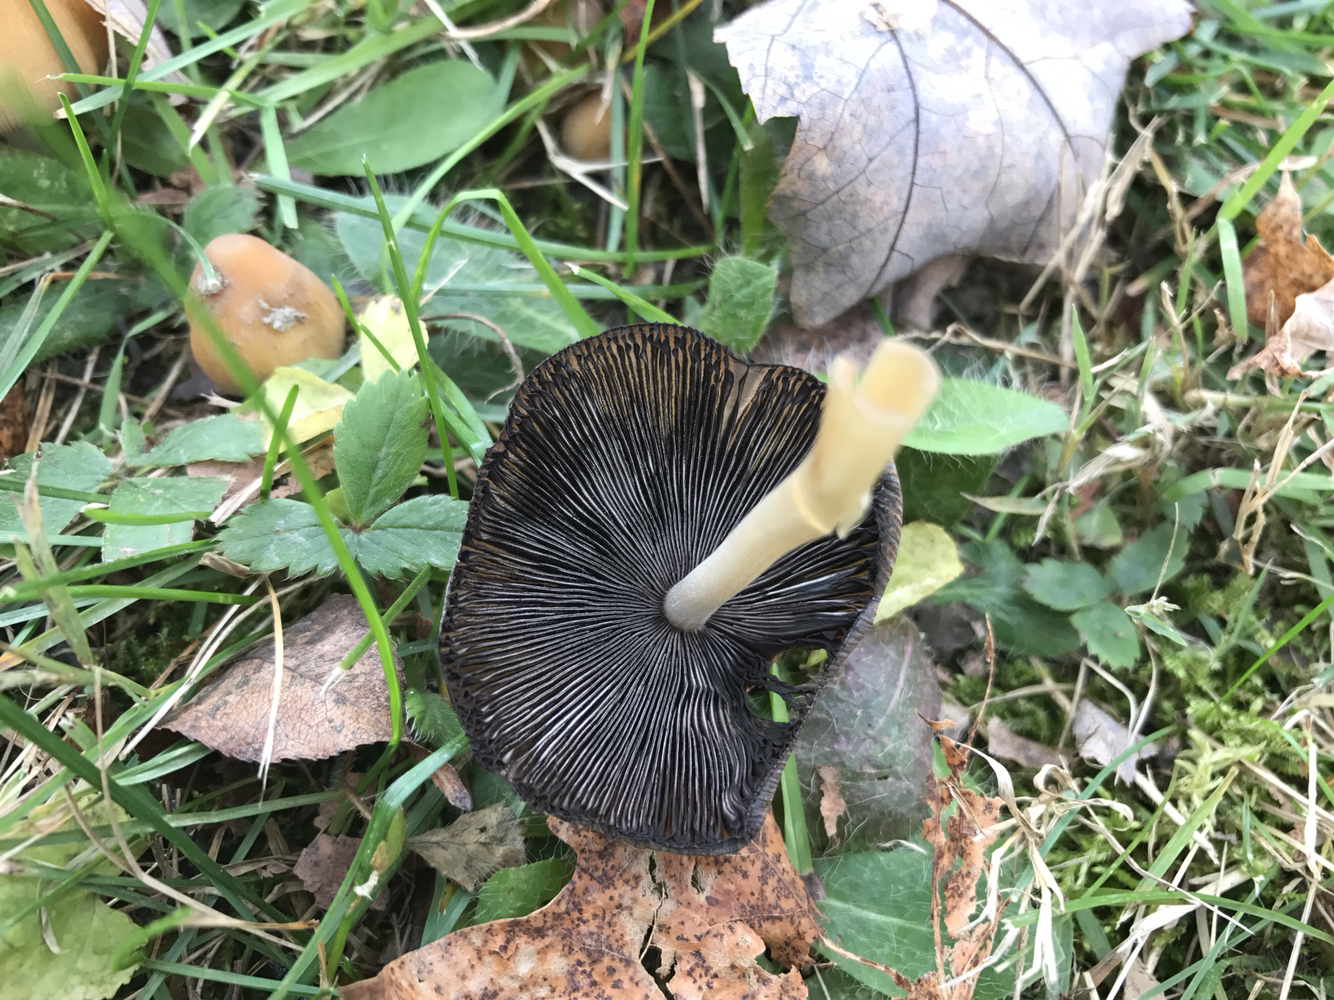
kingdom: Fungi
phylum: Basidiomycota
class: Agaricomycetes
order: Agaricales
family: Psathyrellaceae
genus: Coprinellus
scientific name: Coprinellus micaceus
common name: Glistening ink-cap
